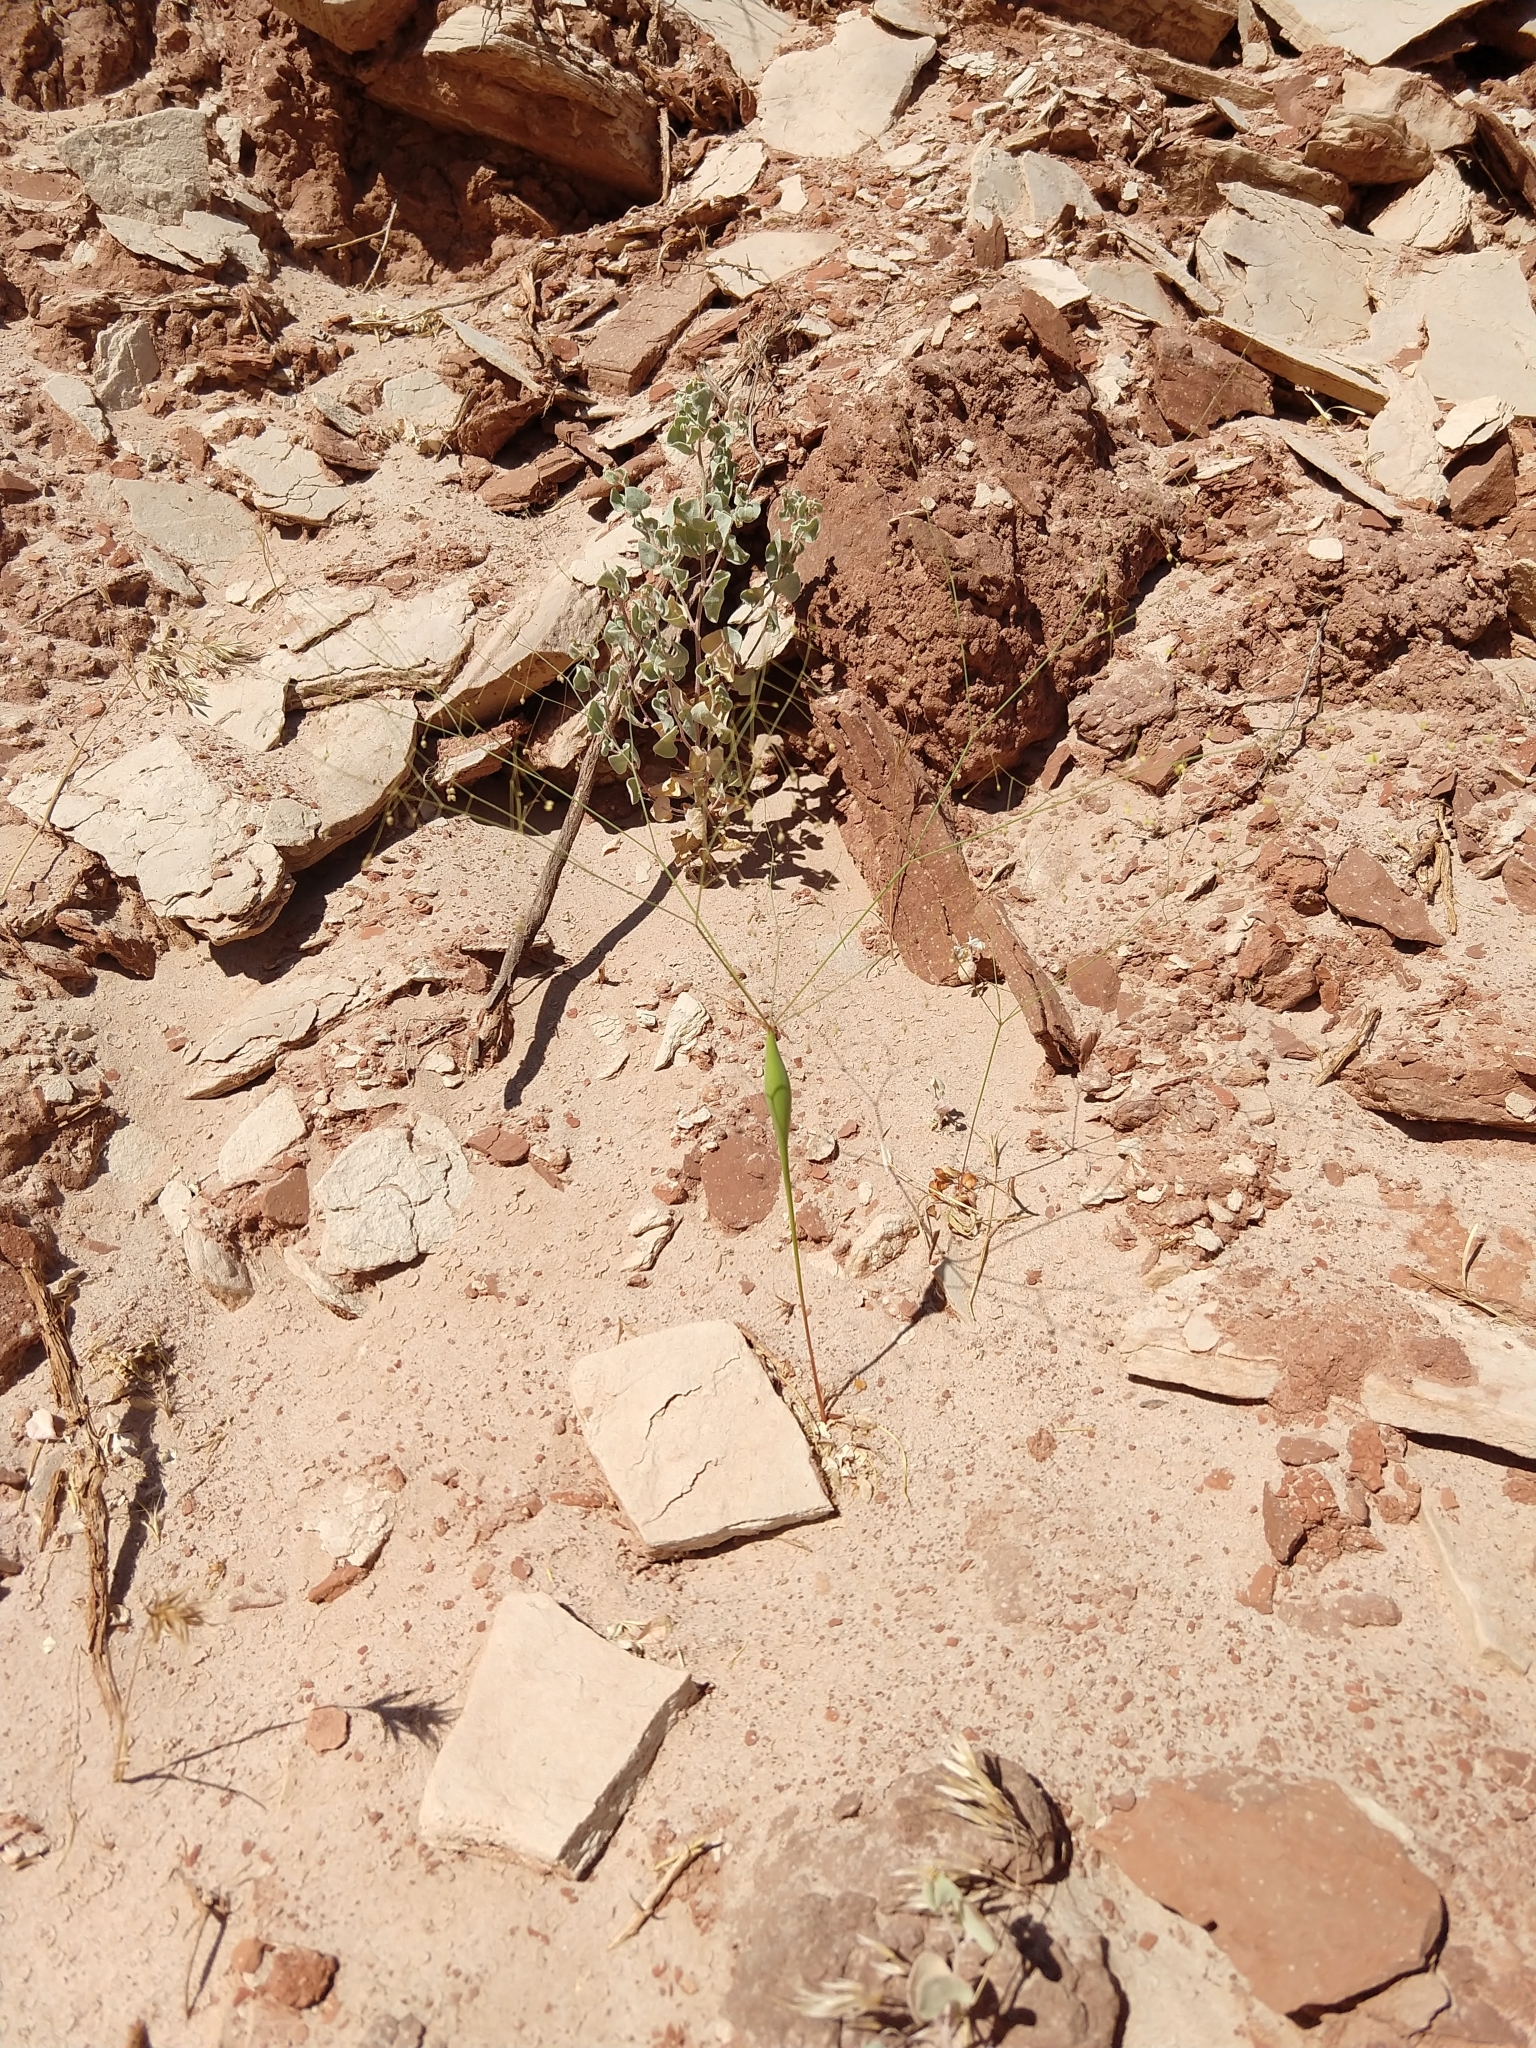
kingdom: Plantae
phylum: Tracheophyta
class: Magnoliopsida
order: Caryophyllales
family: Polygonaceae
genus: Eriogonum
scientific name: Eriogonum inflatum
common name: Desert trumpet
